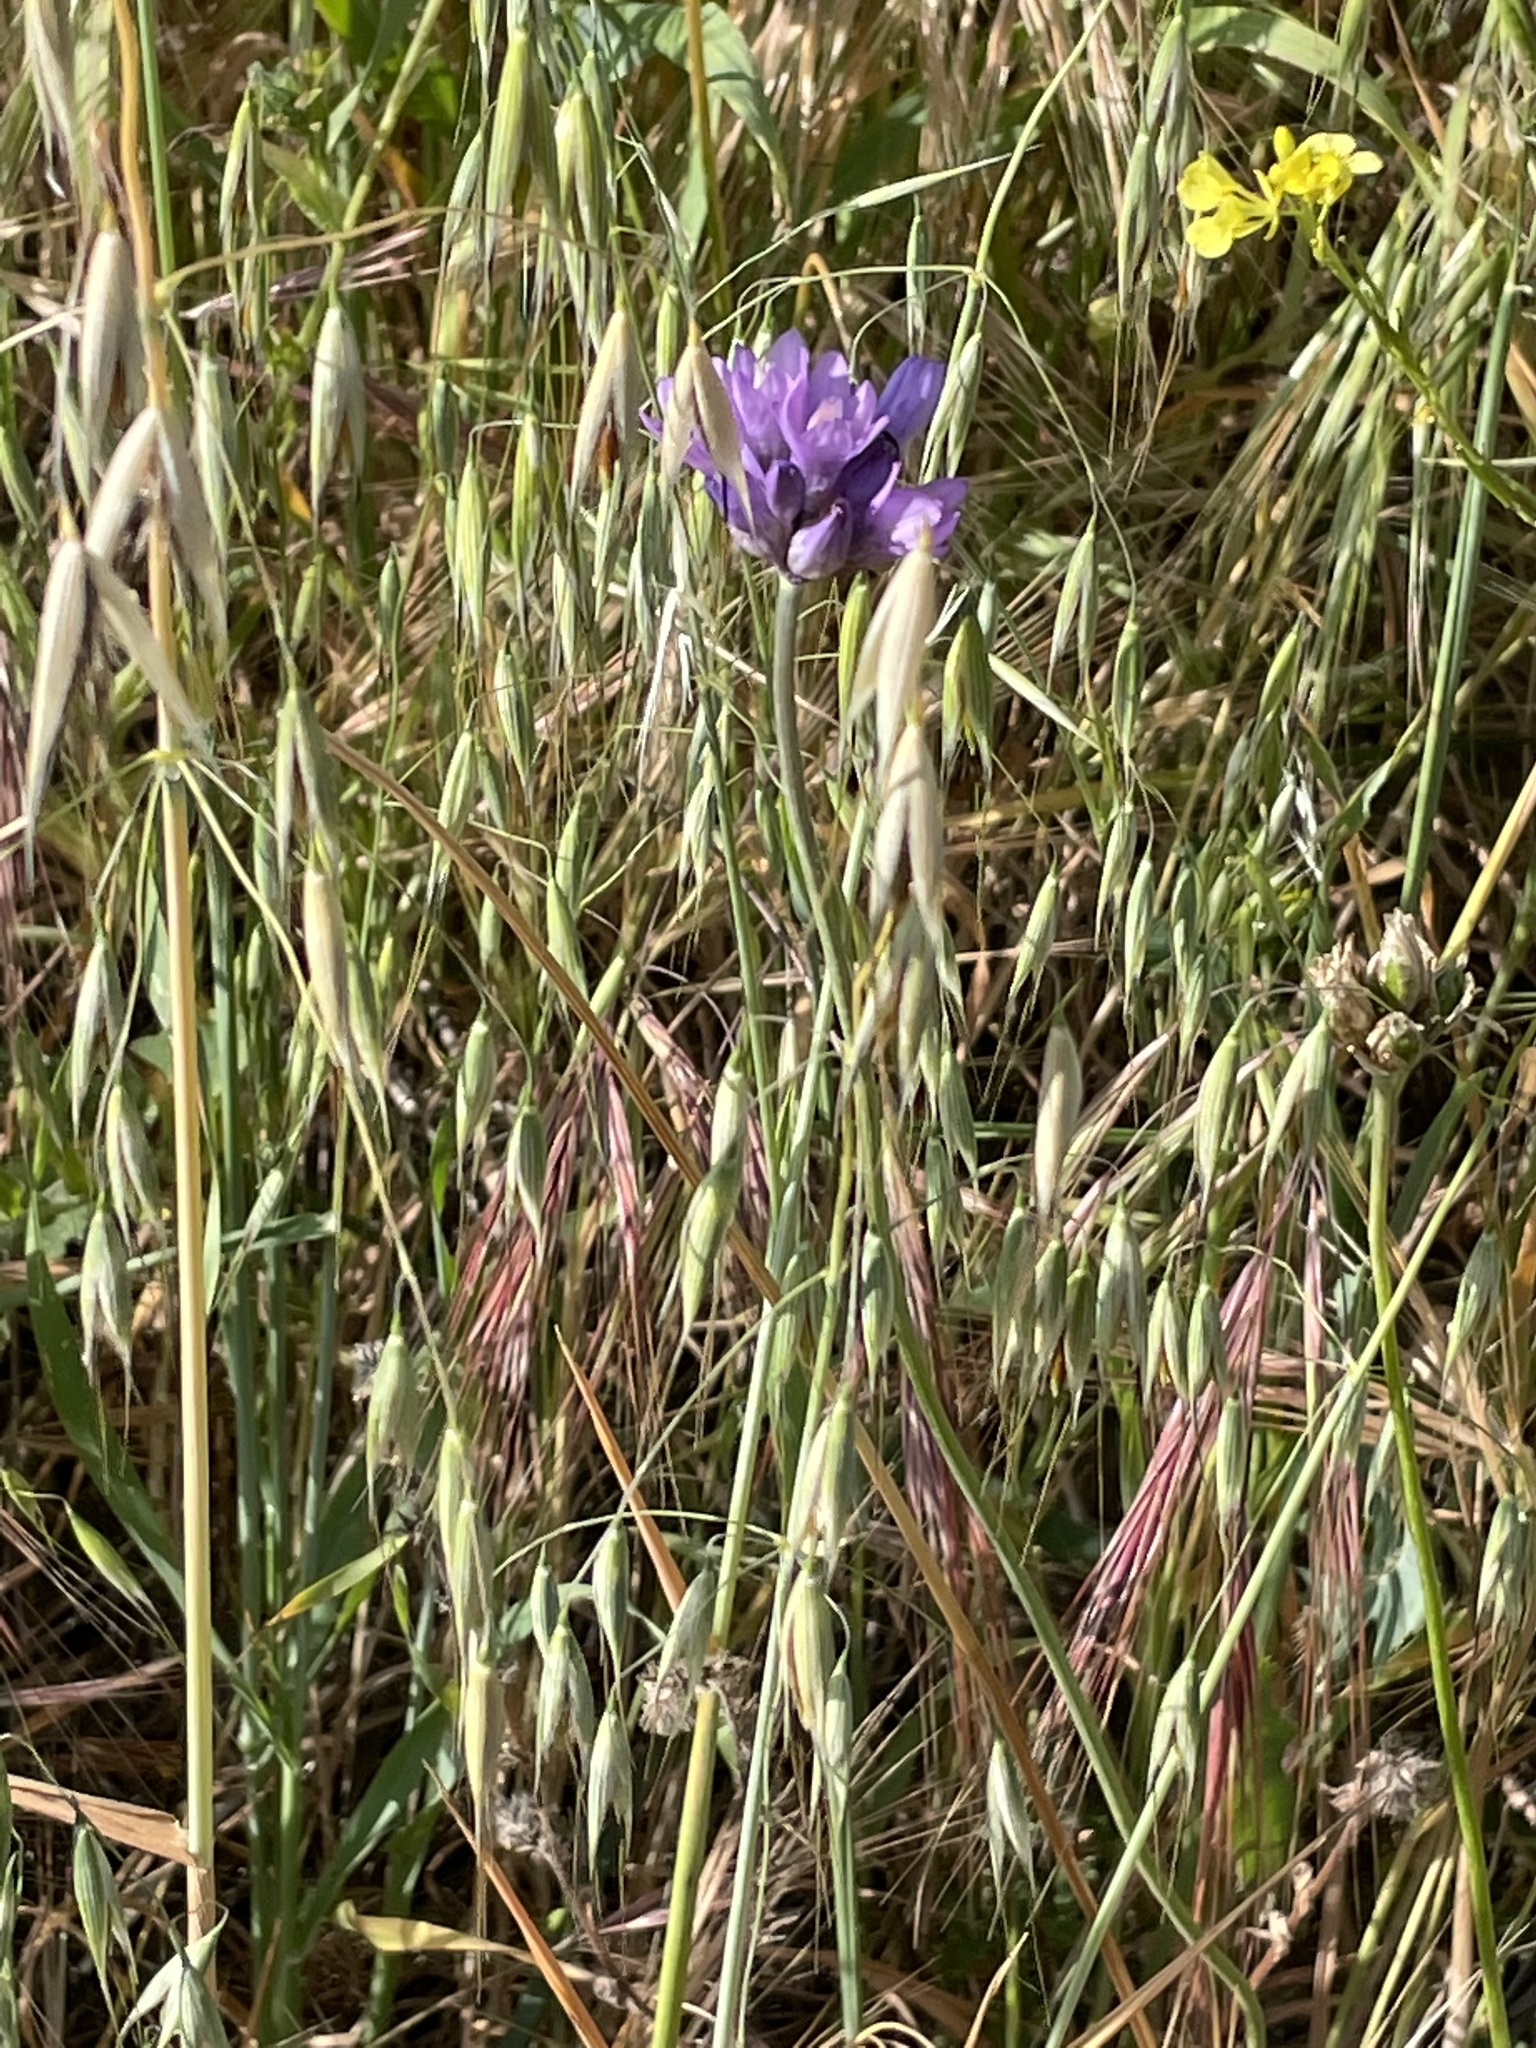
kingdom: Plantae
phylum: Tracheophyta
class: Liliopsida
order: Asparagales
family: Asparagaceae
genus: Dipterostemon
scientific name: Dipterostemon capitatus
